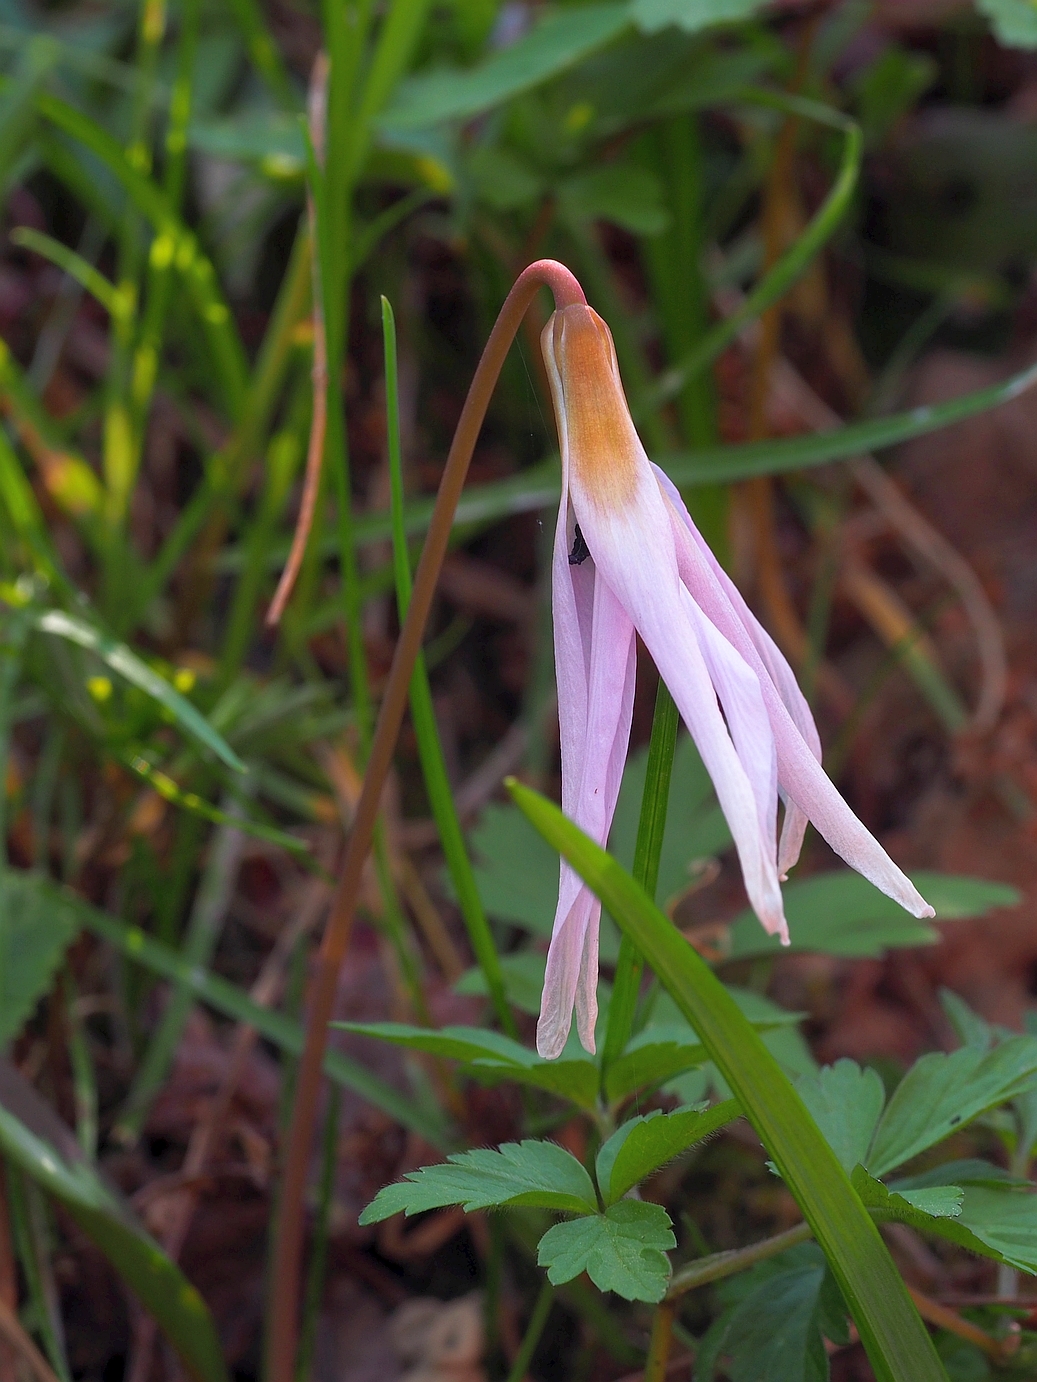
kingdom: Plantae
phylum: Tracheophyta
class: Liliopsida
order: Liliales
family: Liliaceae
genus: Erythronium
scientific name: Erythronium dens-canis
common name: Dog's-tooth-violet
